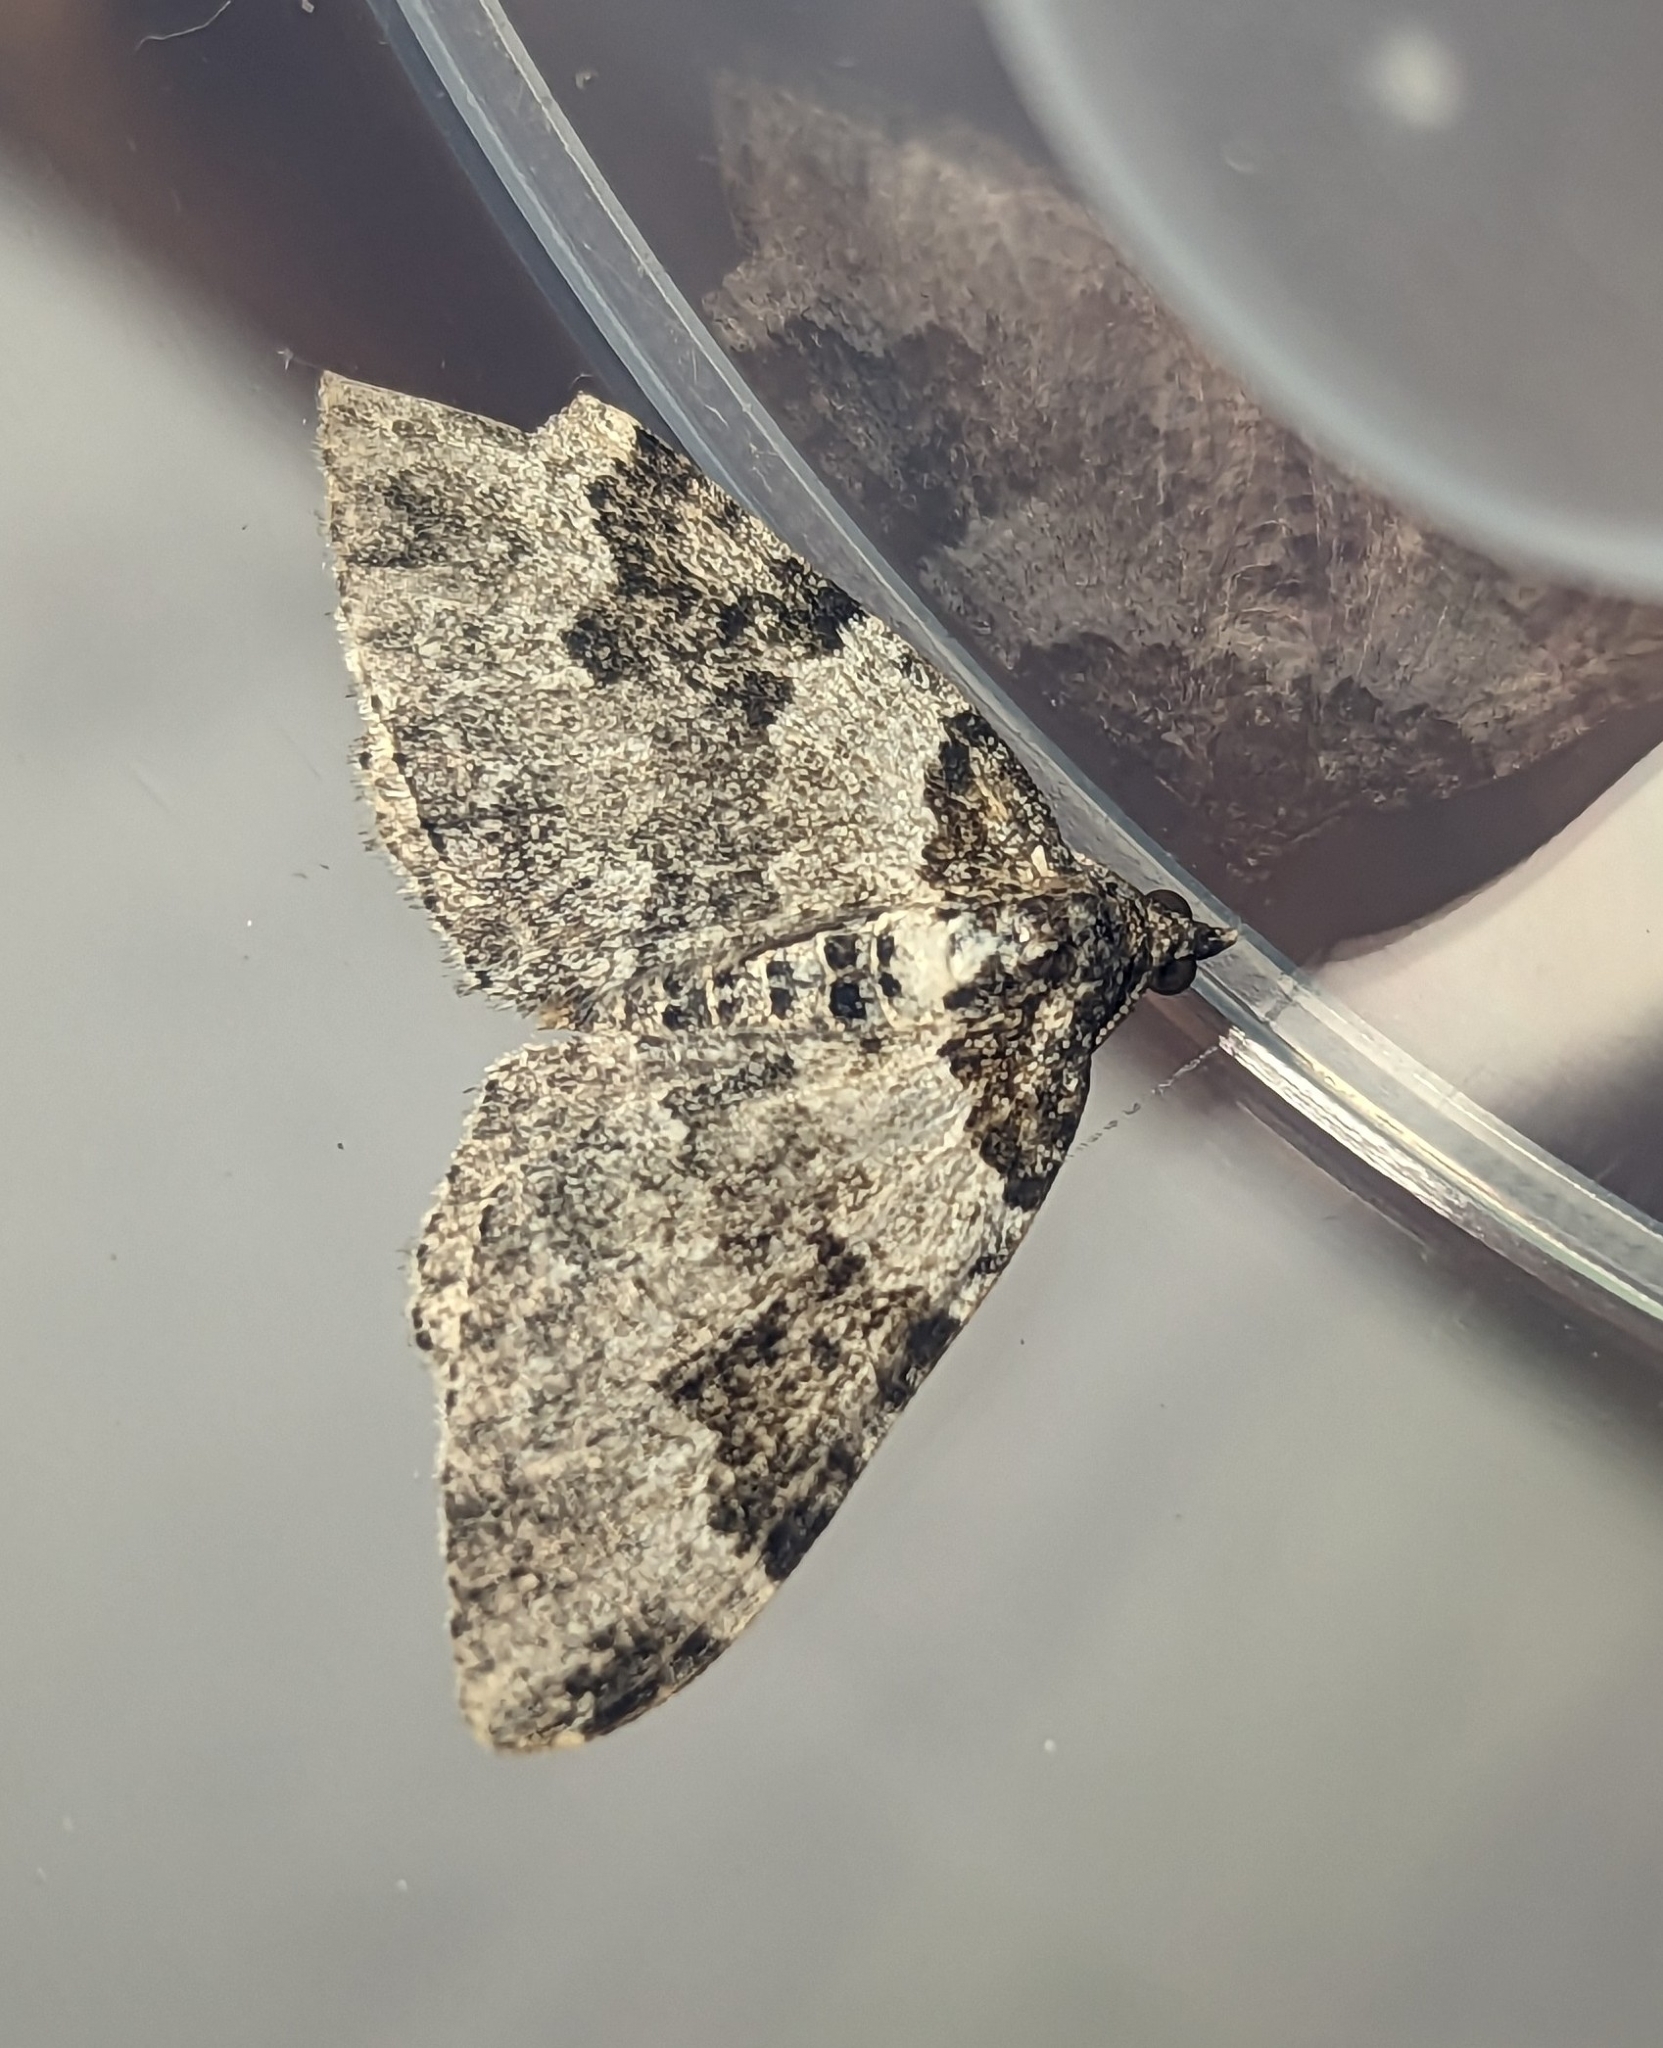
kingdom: Animalia
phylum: Arthropoda
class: Insecta
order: Lepidoptera
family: Geometridae
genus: Xanthorhoe
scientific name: Xanthorhoe fluctuata
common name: Garden carpet
